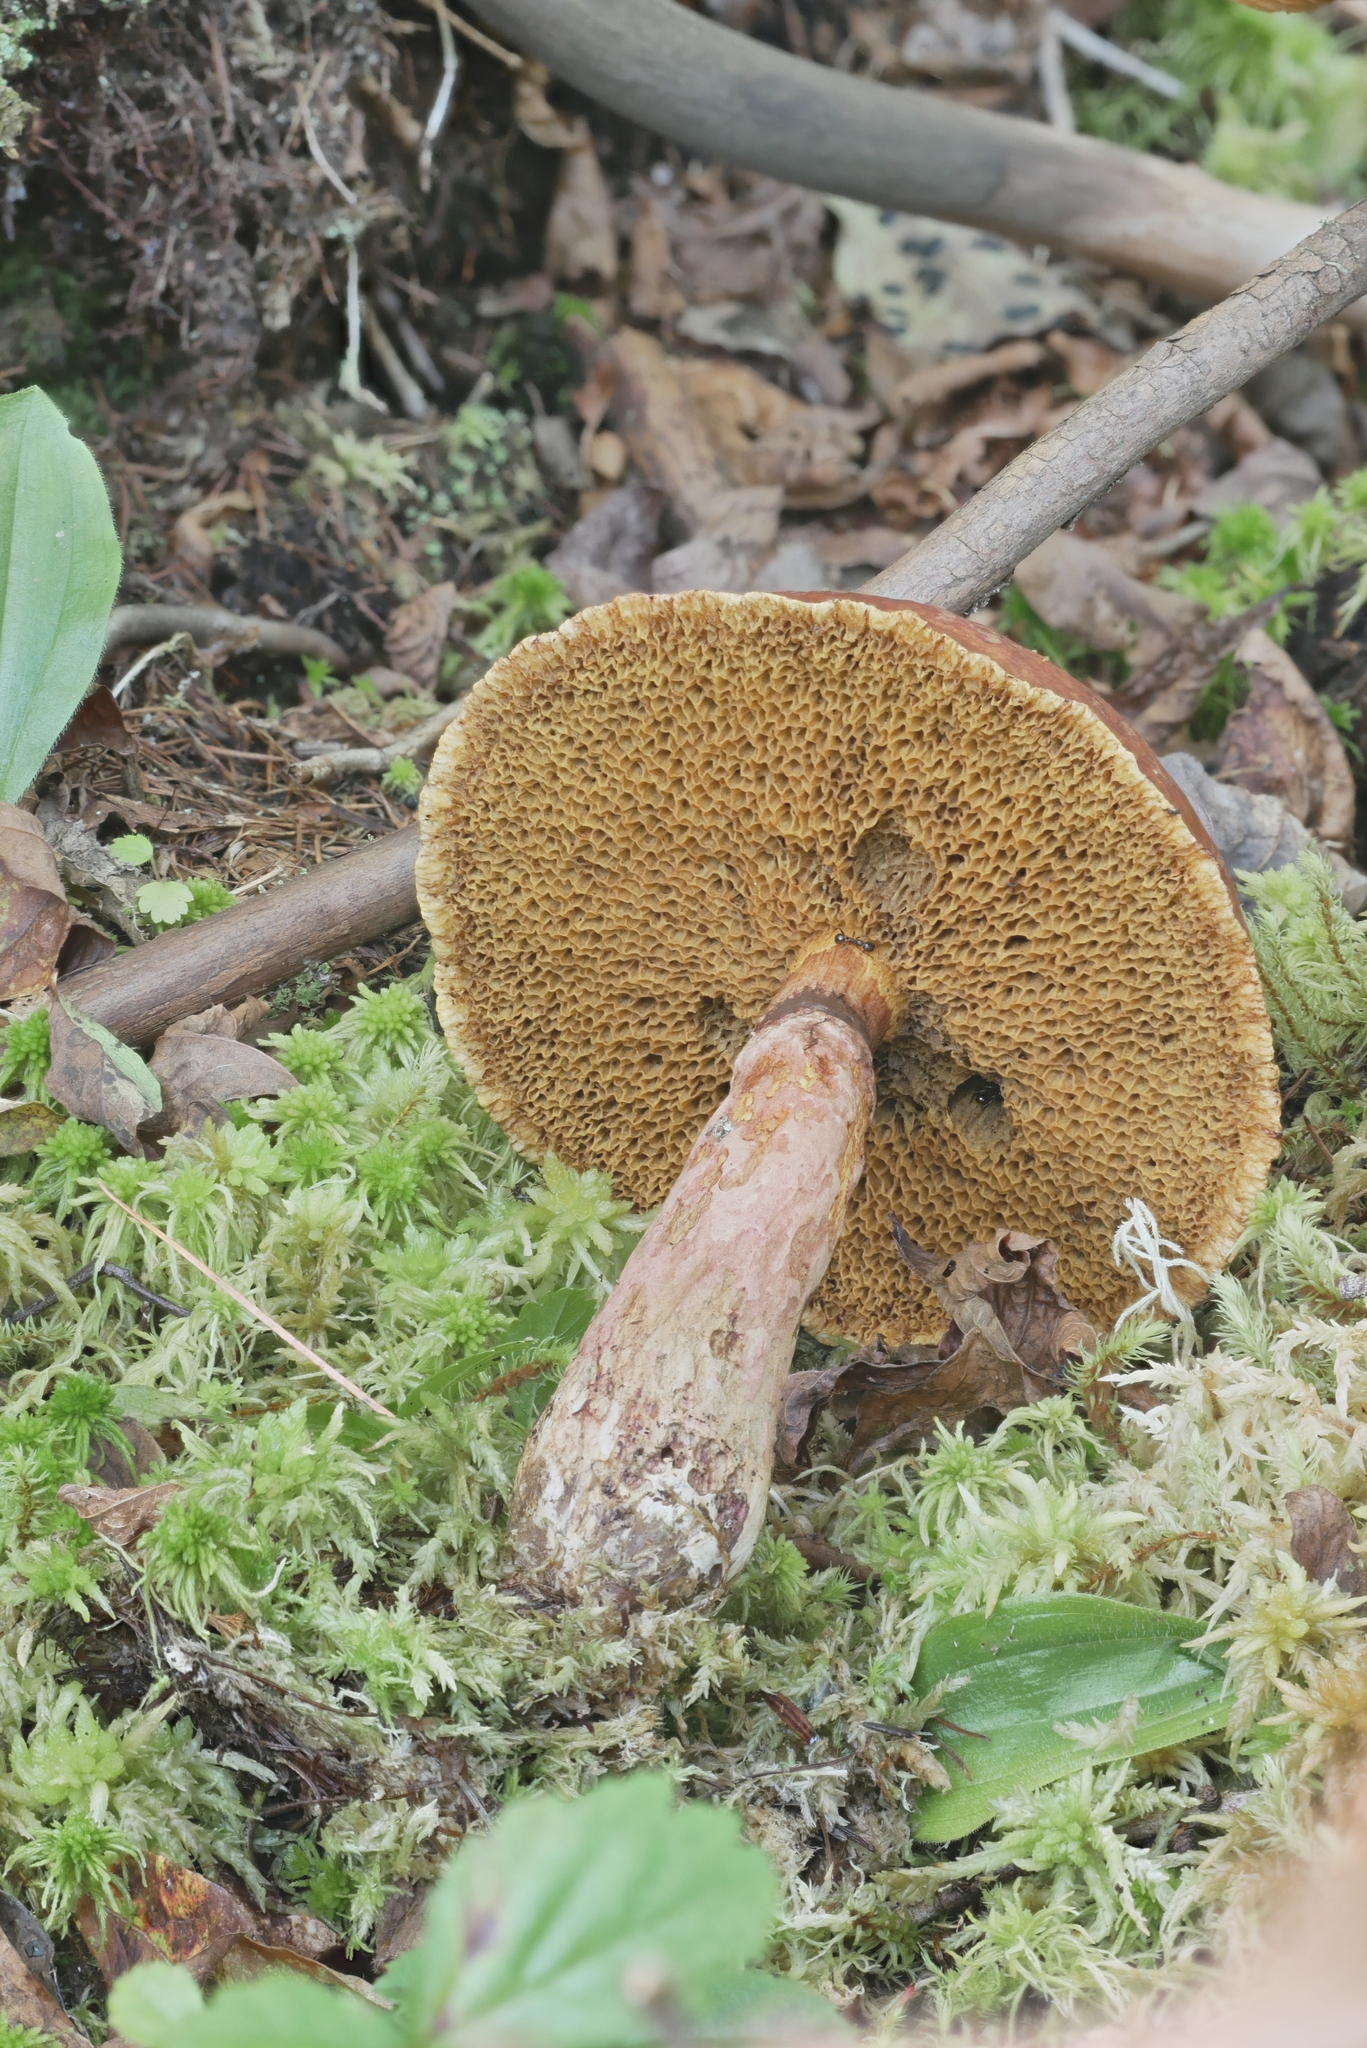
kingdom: Fungi
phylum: Basidiomycota
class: Agaricomycetes
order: Boletales
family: Suillaceae
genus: Boletinus
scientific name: Boletinus spectabilis
